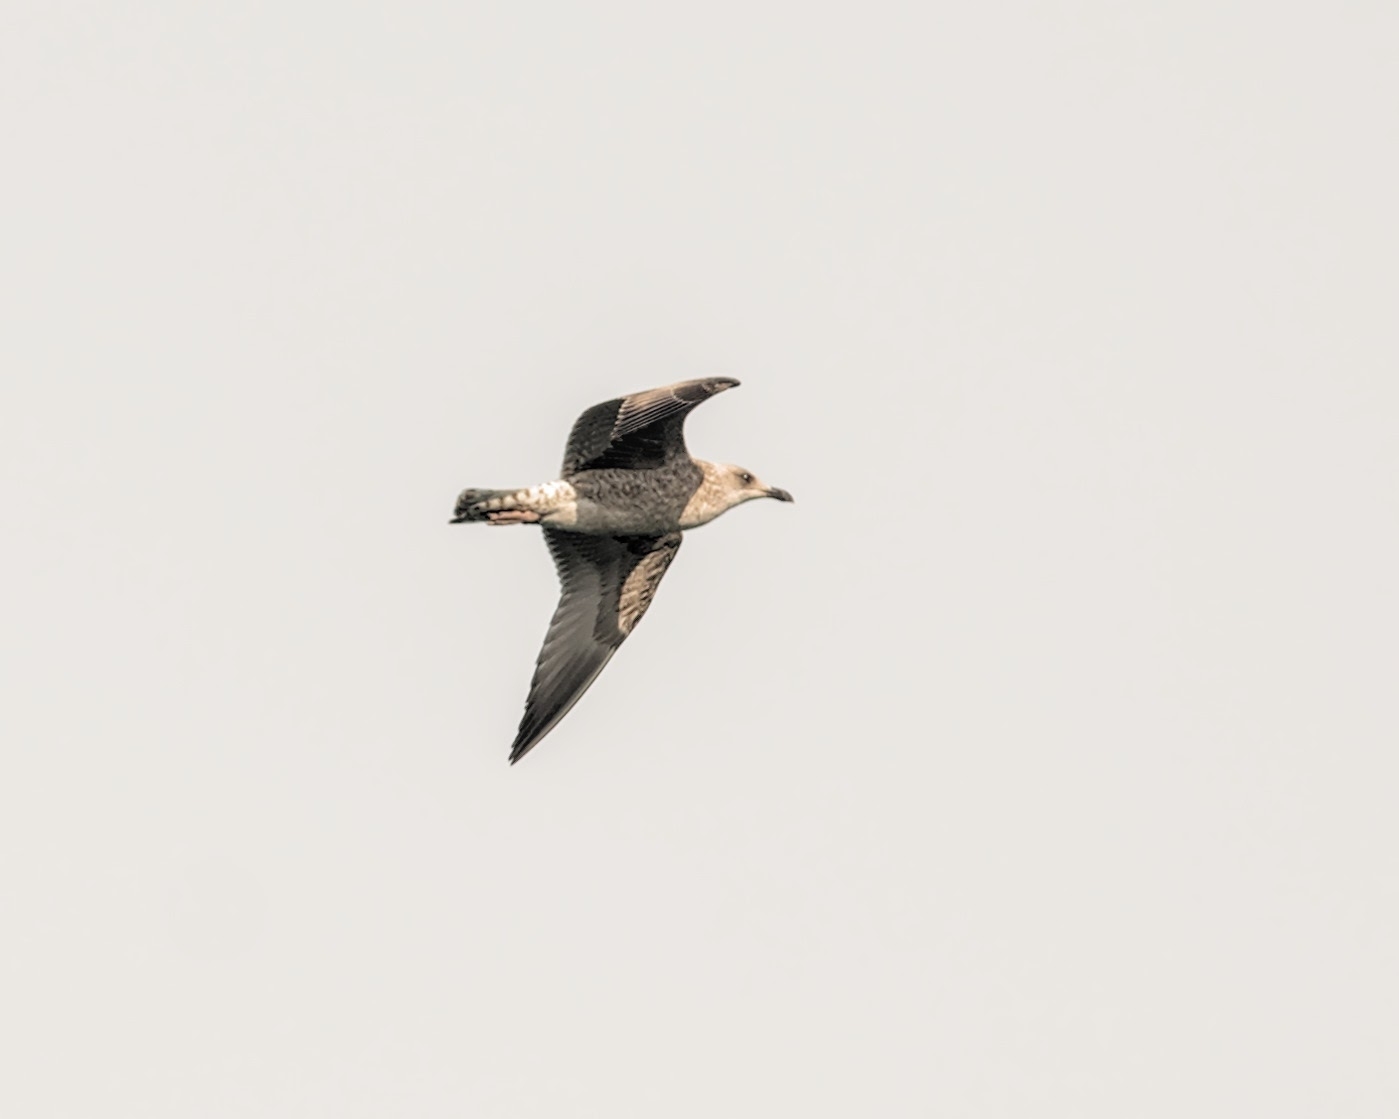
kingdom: Animalia
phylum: Chordata
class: Aves
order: Charadriiformes
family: Laridae
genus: Larus
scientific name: Larus argentatus
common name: Herring gull
